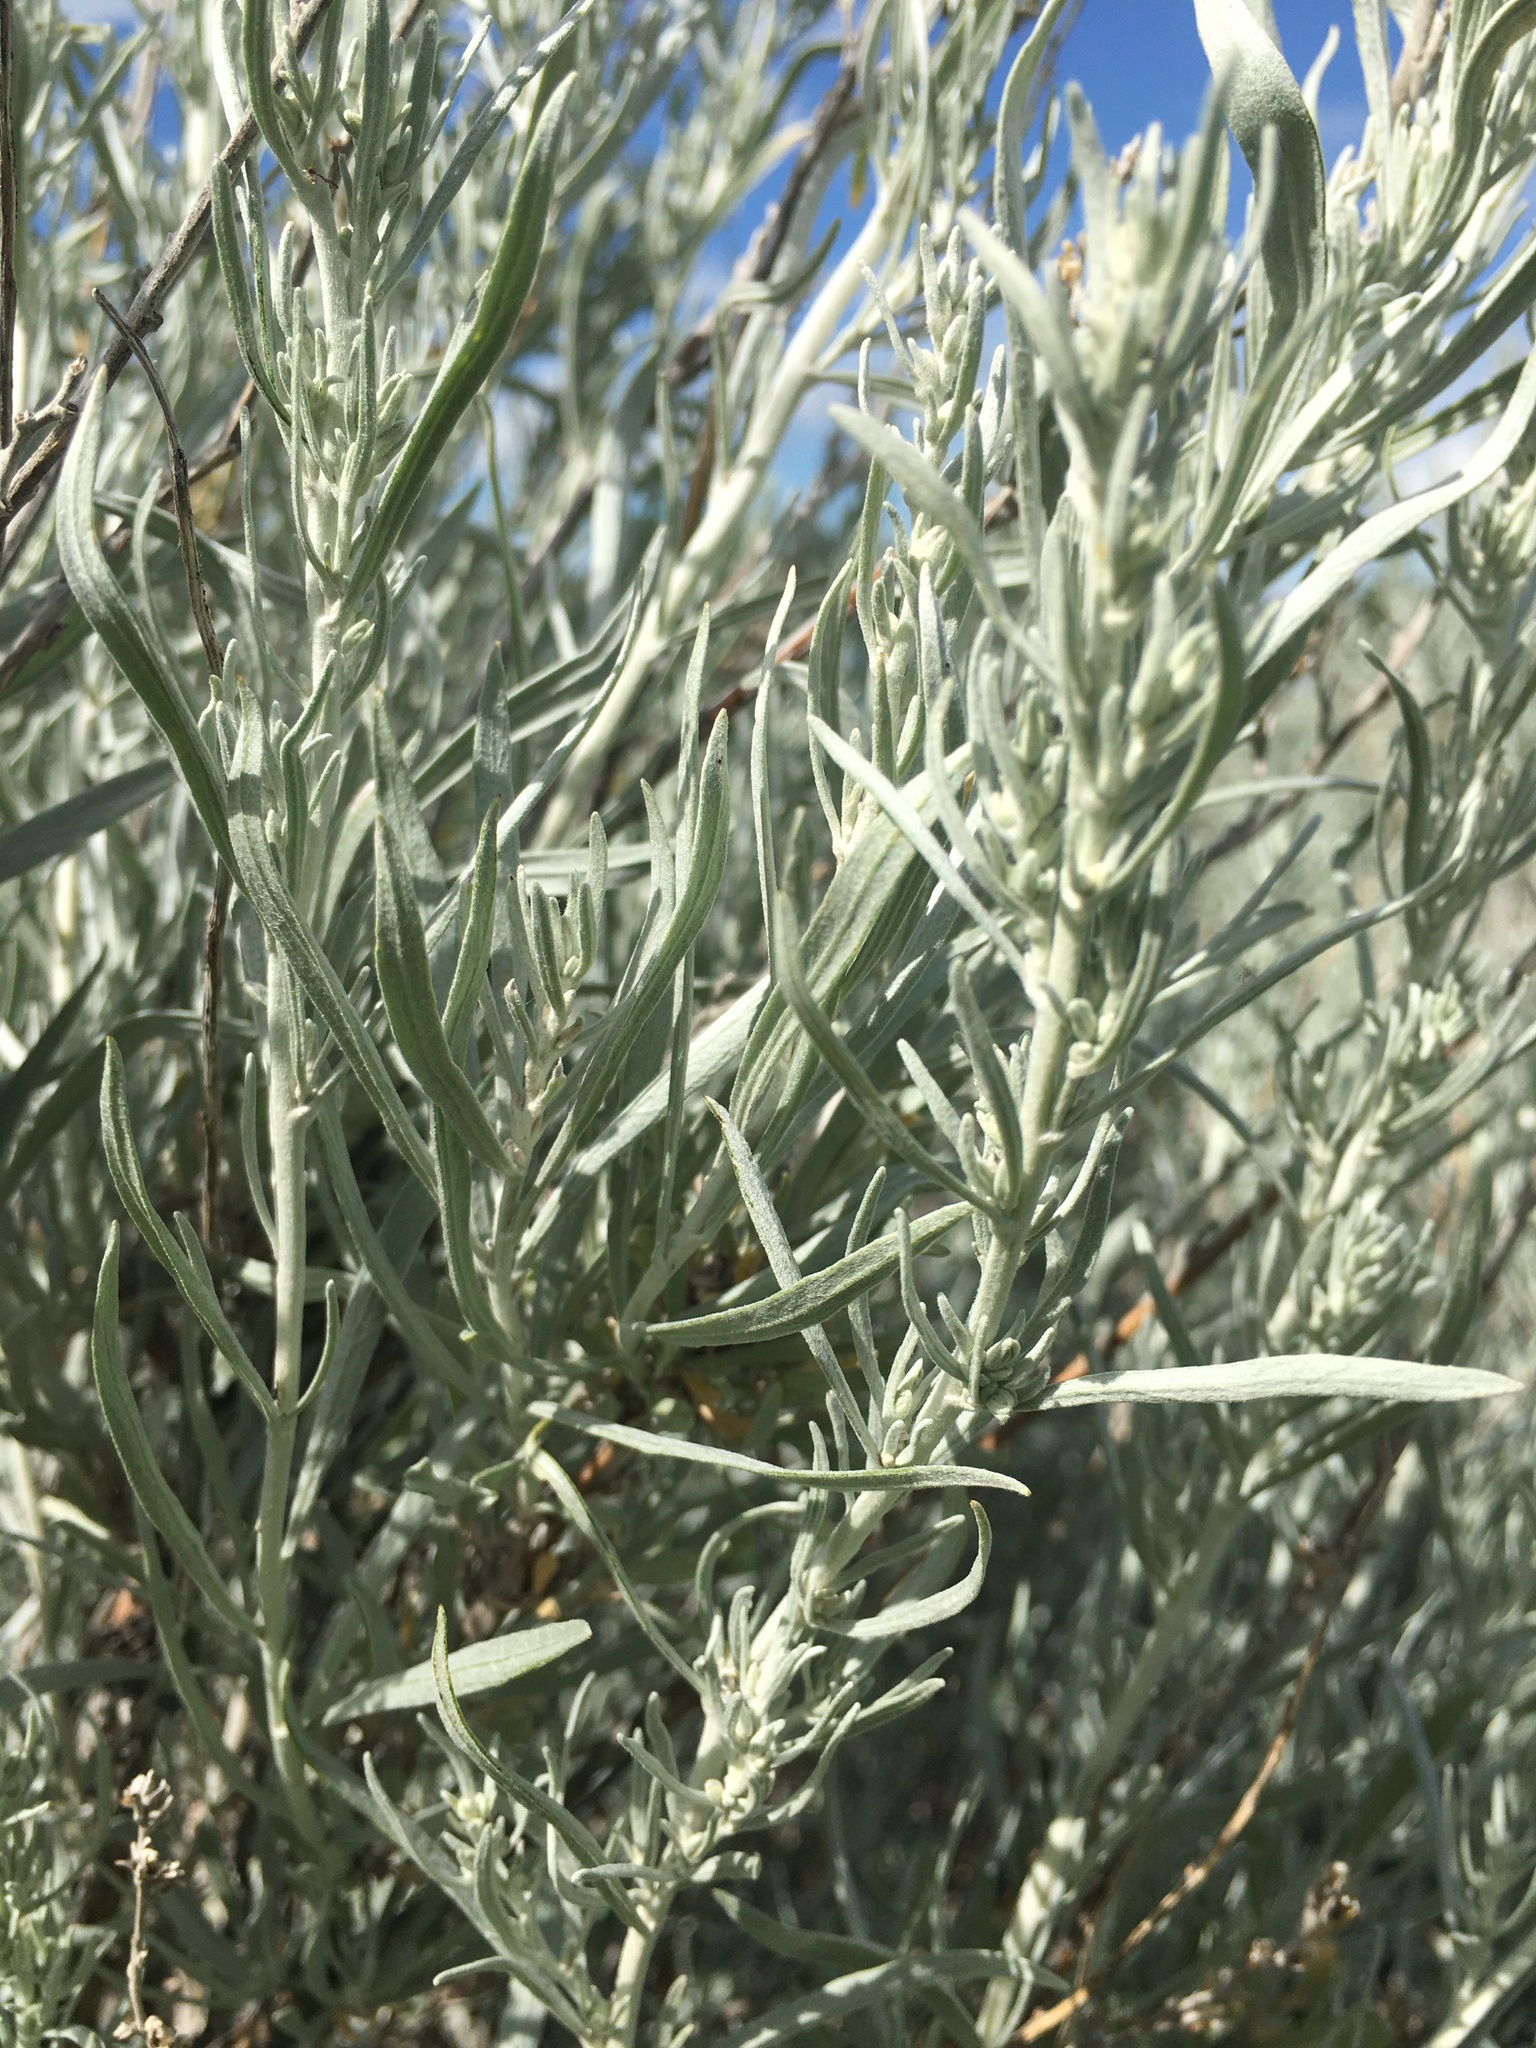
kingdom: Plantae
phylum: Tracheophyta
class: Magnoliopsida
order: Asterales
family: Asteraceae
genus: Artemisia
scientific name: Artemisia cana
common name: Silver sagebrush
